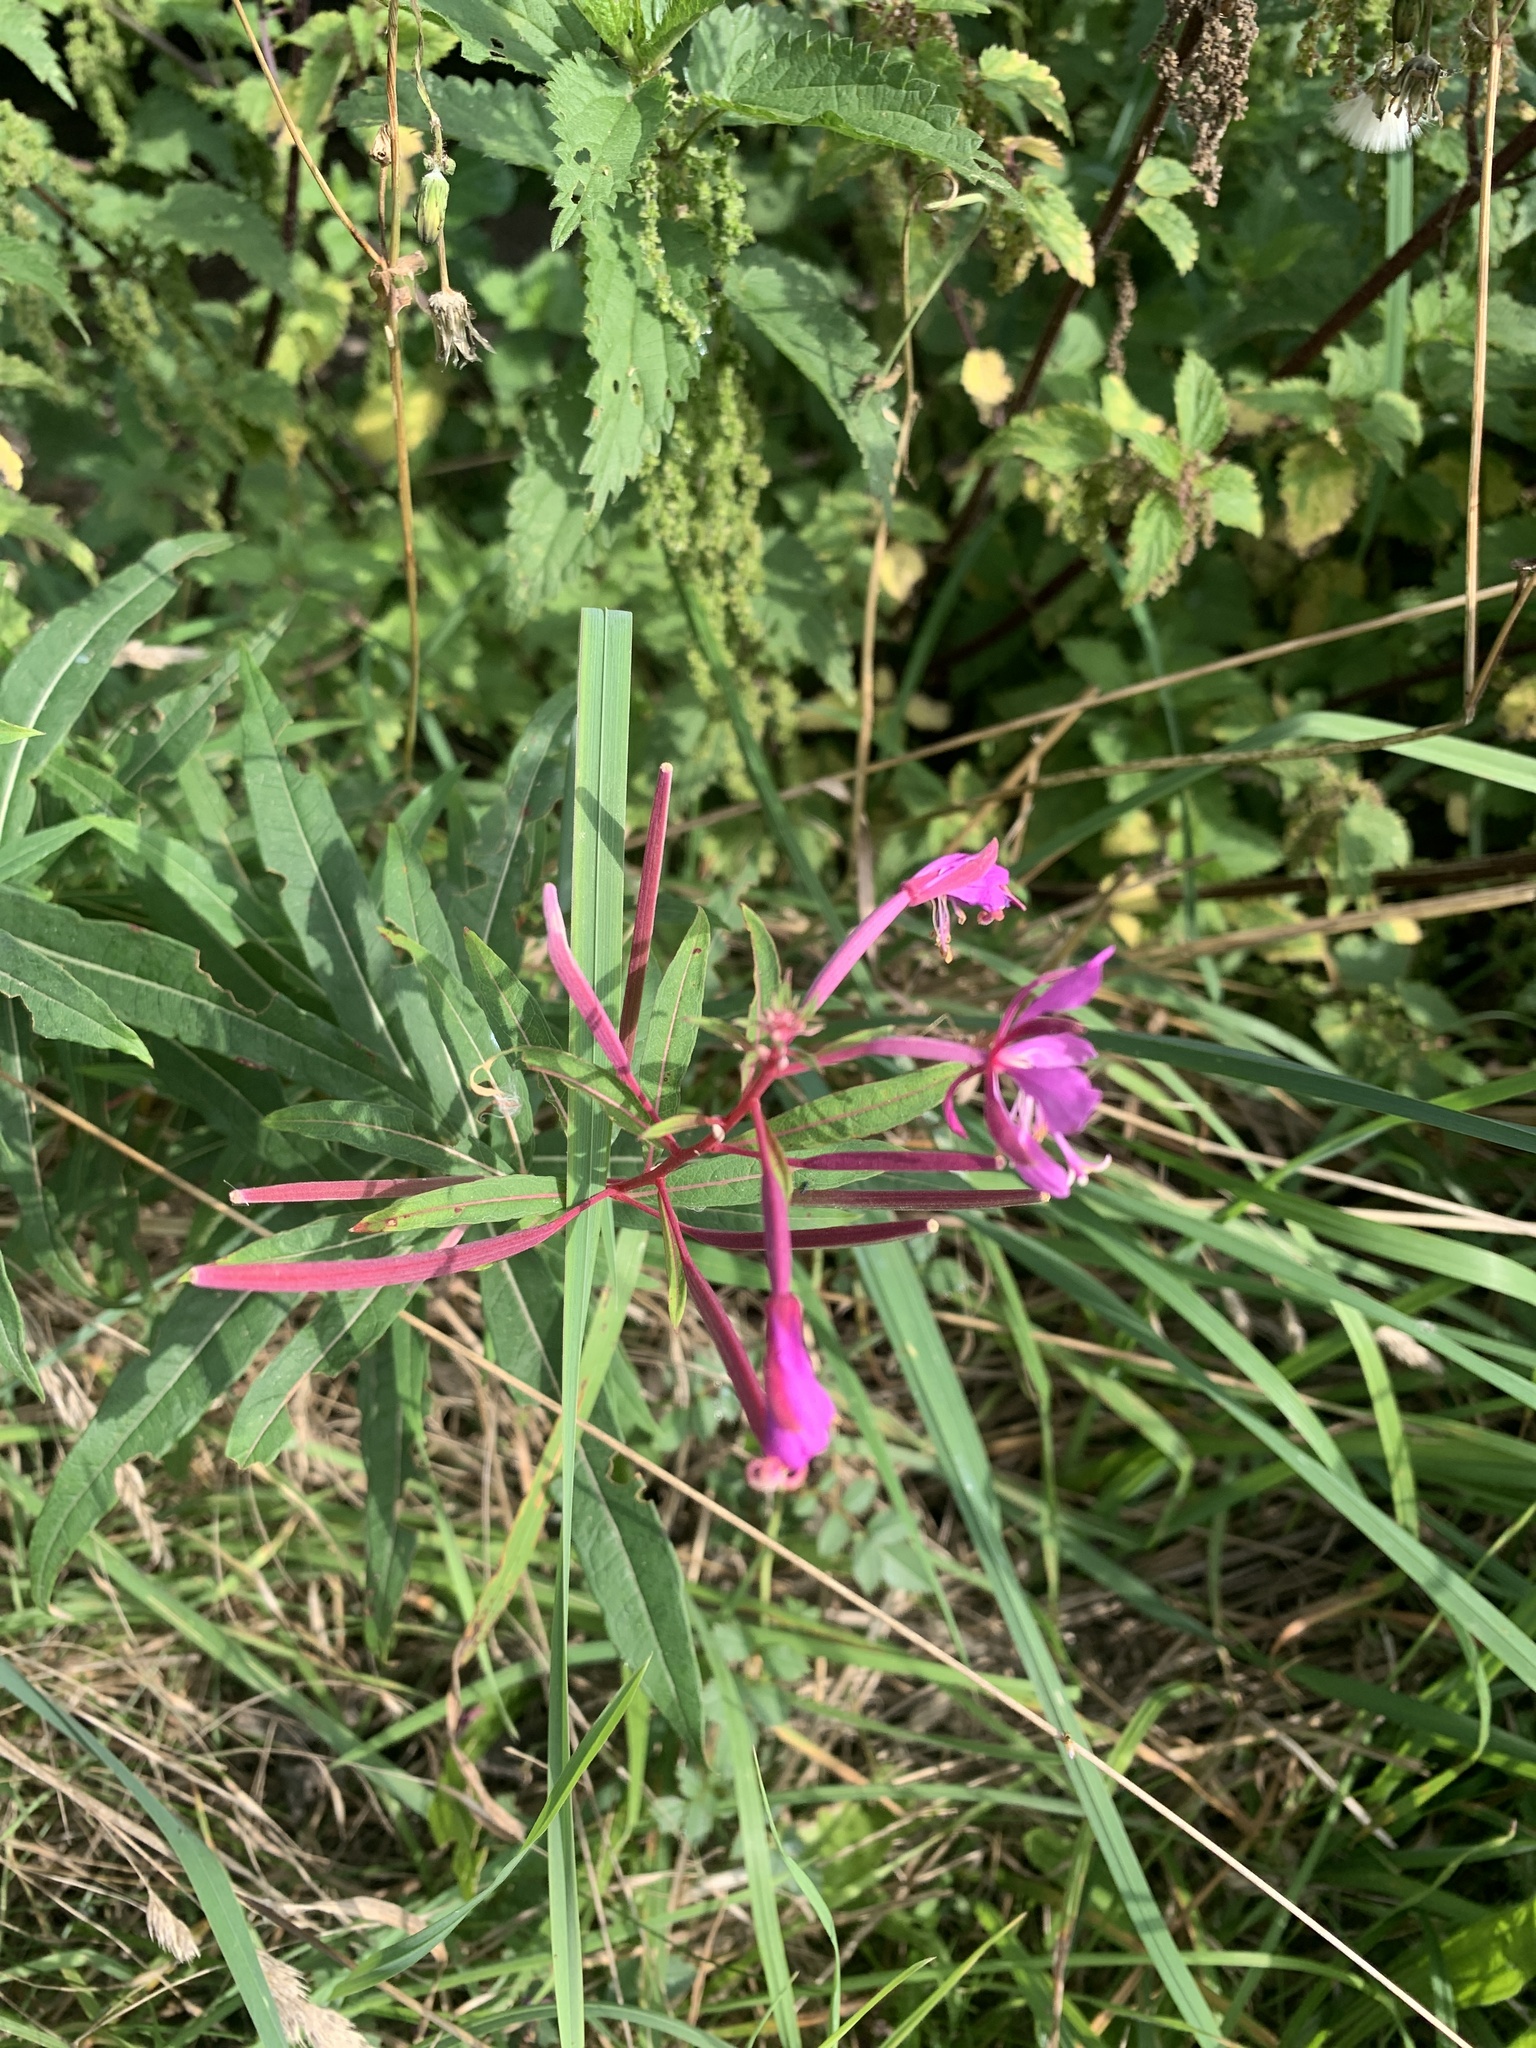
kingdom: Plantae
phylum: Tracheophyta
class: Magnoliopsida
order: Myrtales
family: Onagraceae
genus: Chamaenerion
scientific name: Chamaenerion angustifolium
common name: Fireweed
